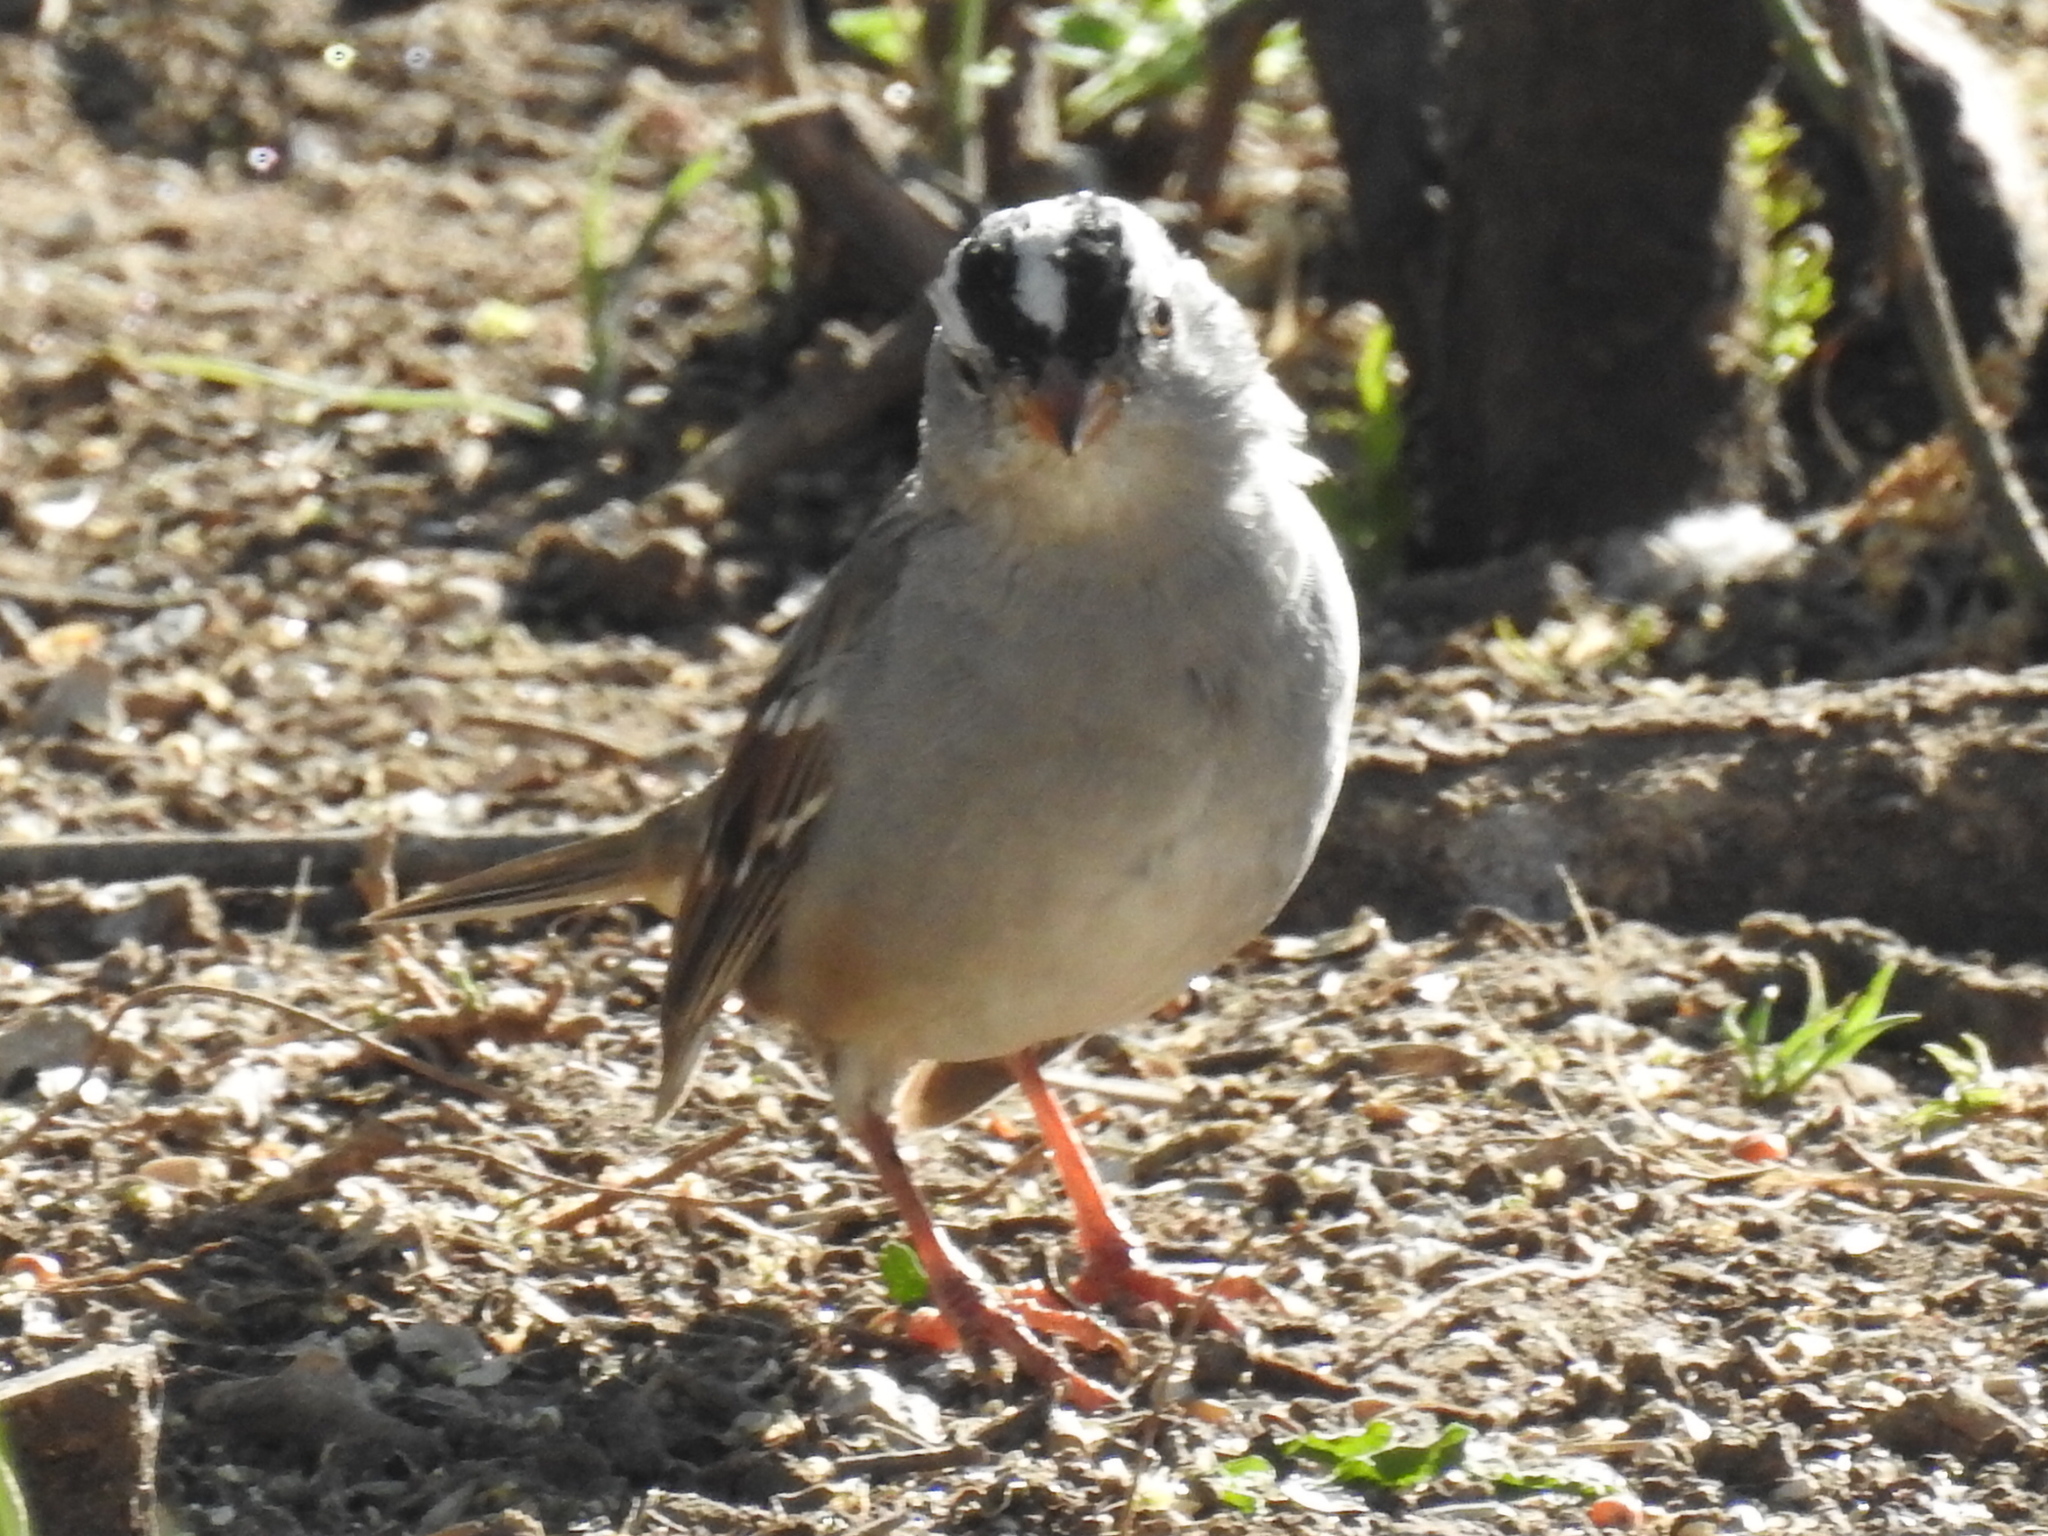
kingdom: Animalia
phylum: Chordata
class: Aves
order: Passeriformes
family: Passerellidae
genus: Zonotrichia
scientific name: Zonotrichia leucophrys
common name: White-crowned sparrow
